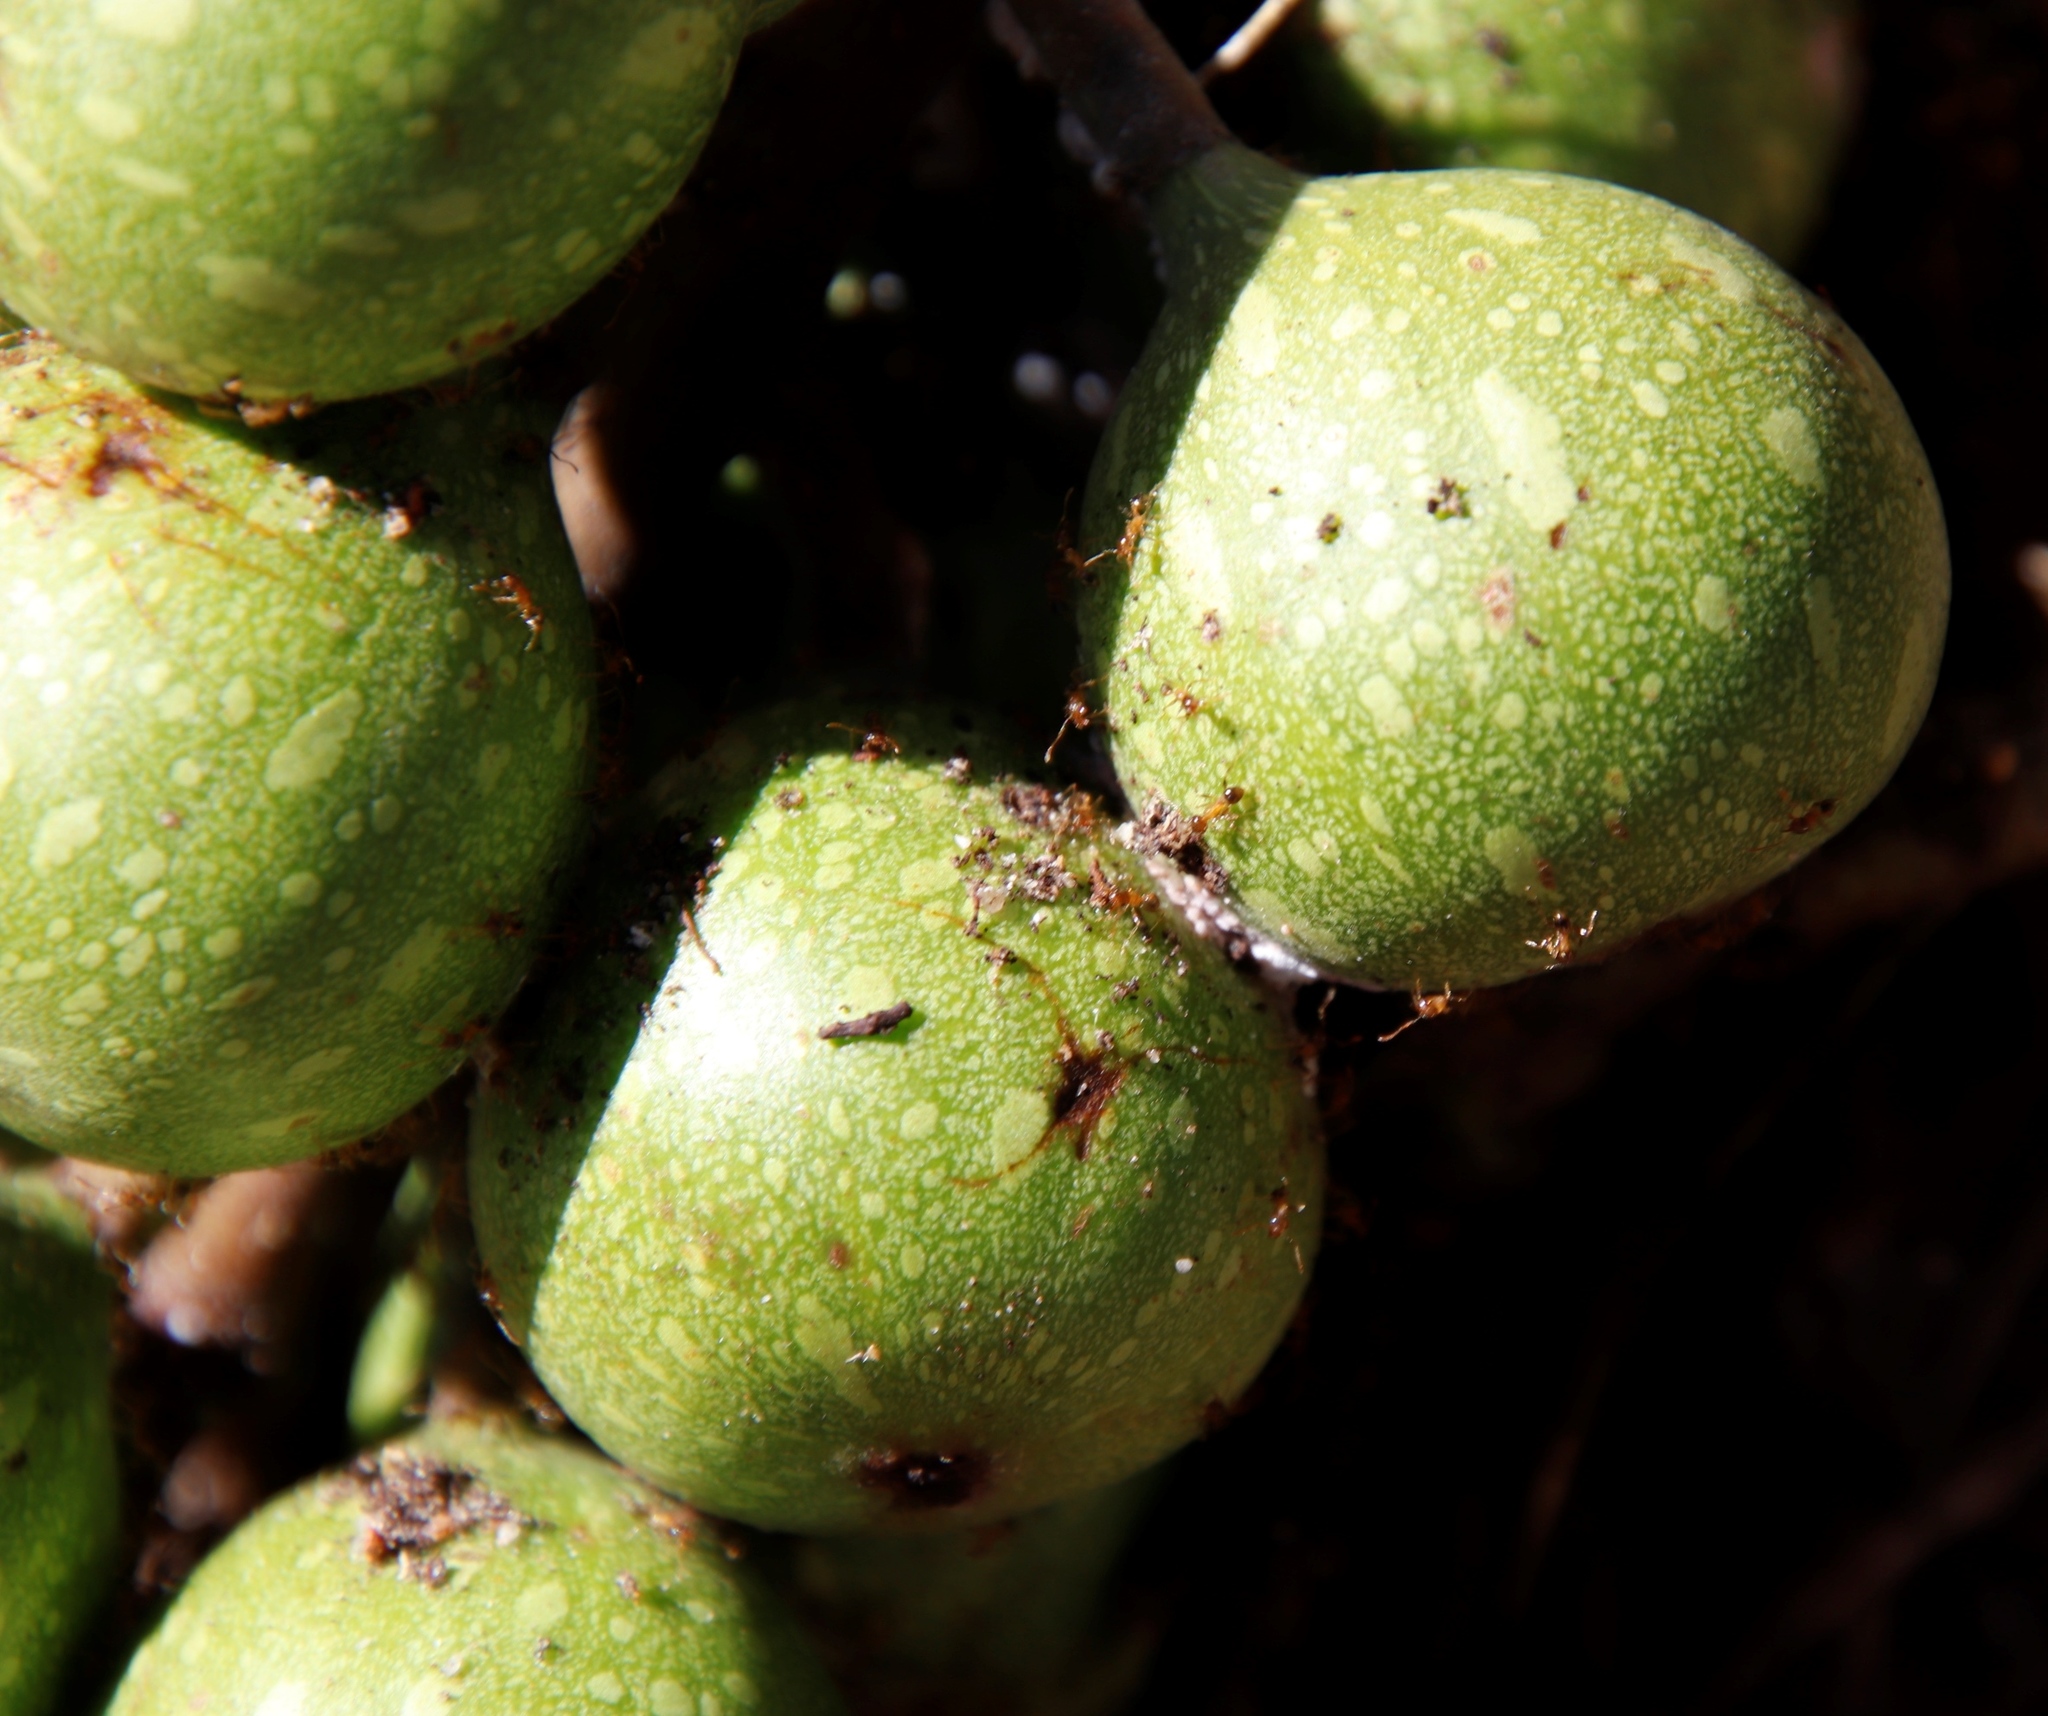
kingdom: Animalia
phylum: Arthropoda
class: Insecta
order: Hymenoptera
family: Formicidae
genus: Pheidole
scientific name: Pheidole megacephala
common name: Bigheaded ant
